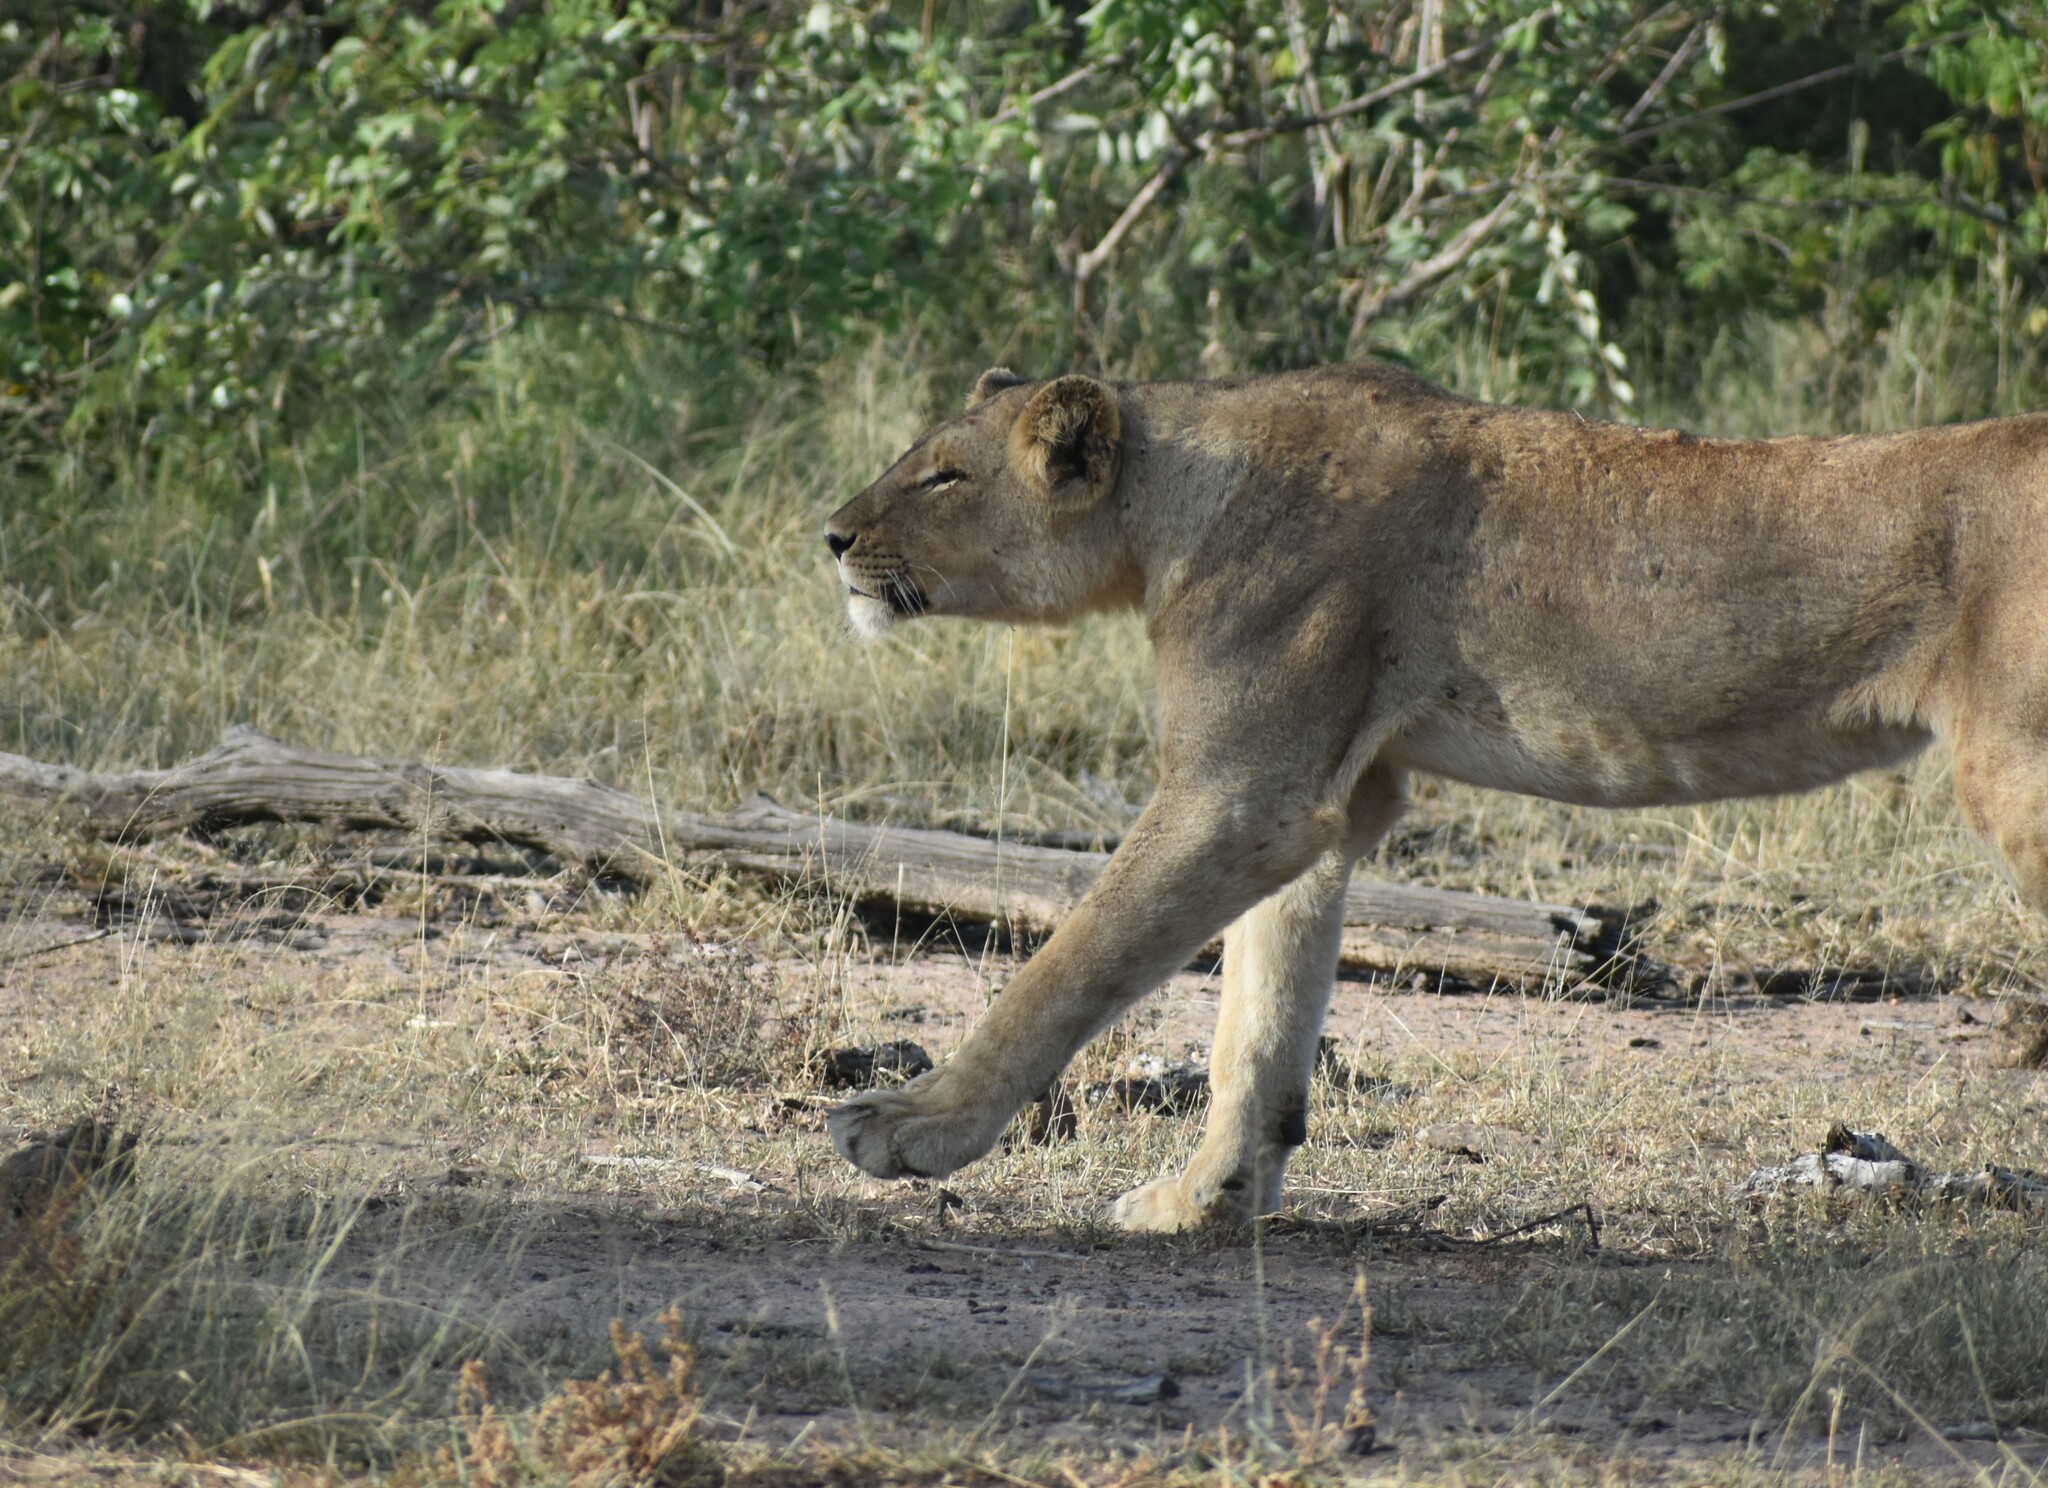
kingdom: Animalia
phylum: Chordata
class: Mammalia
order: Carnivora
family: Felidae
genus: Panthera
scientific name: Panthera leo
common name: Lion
